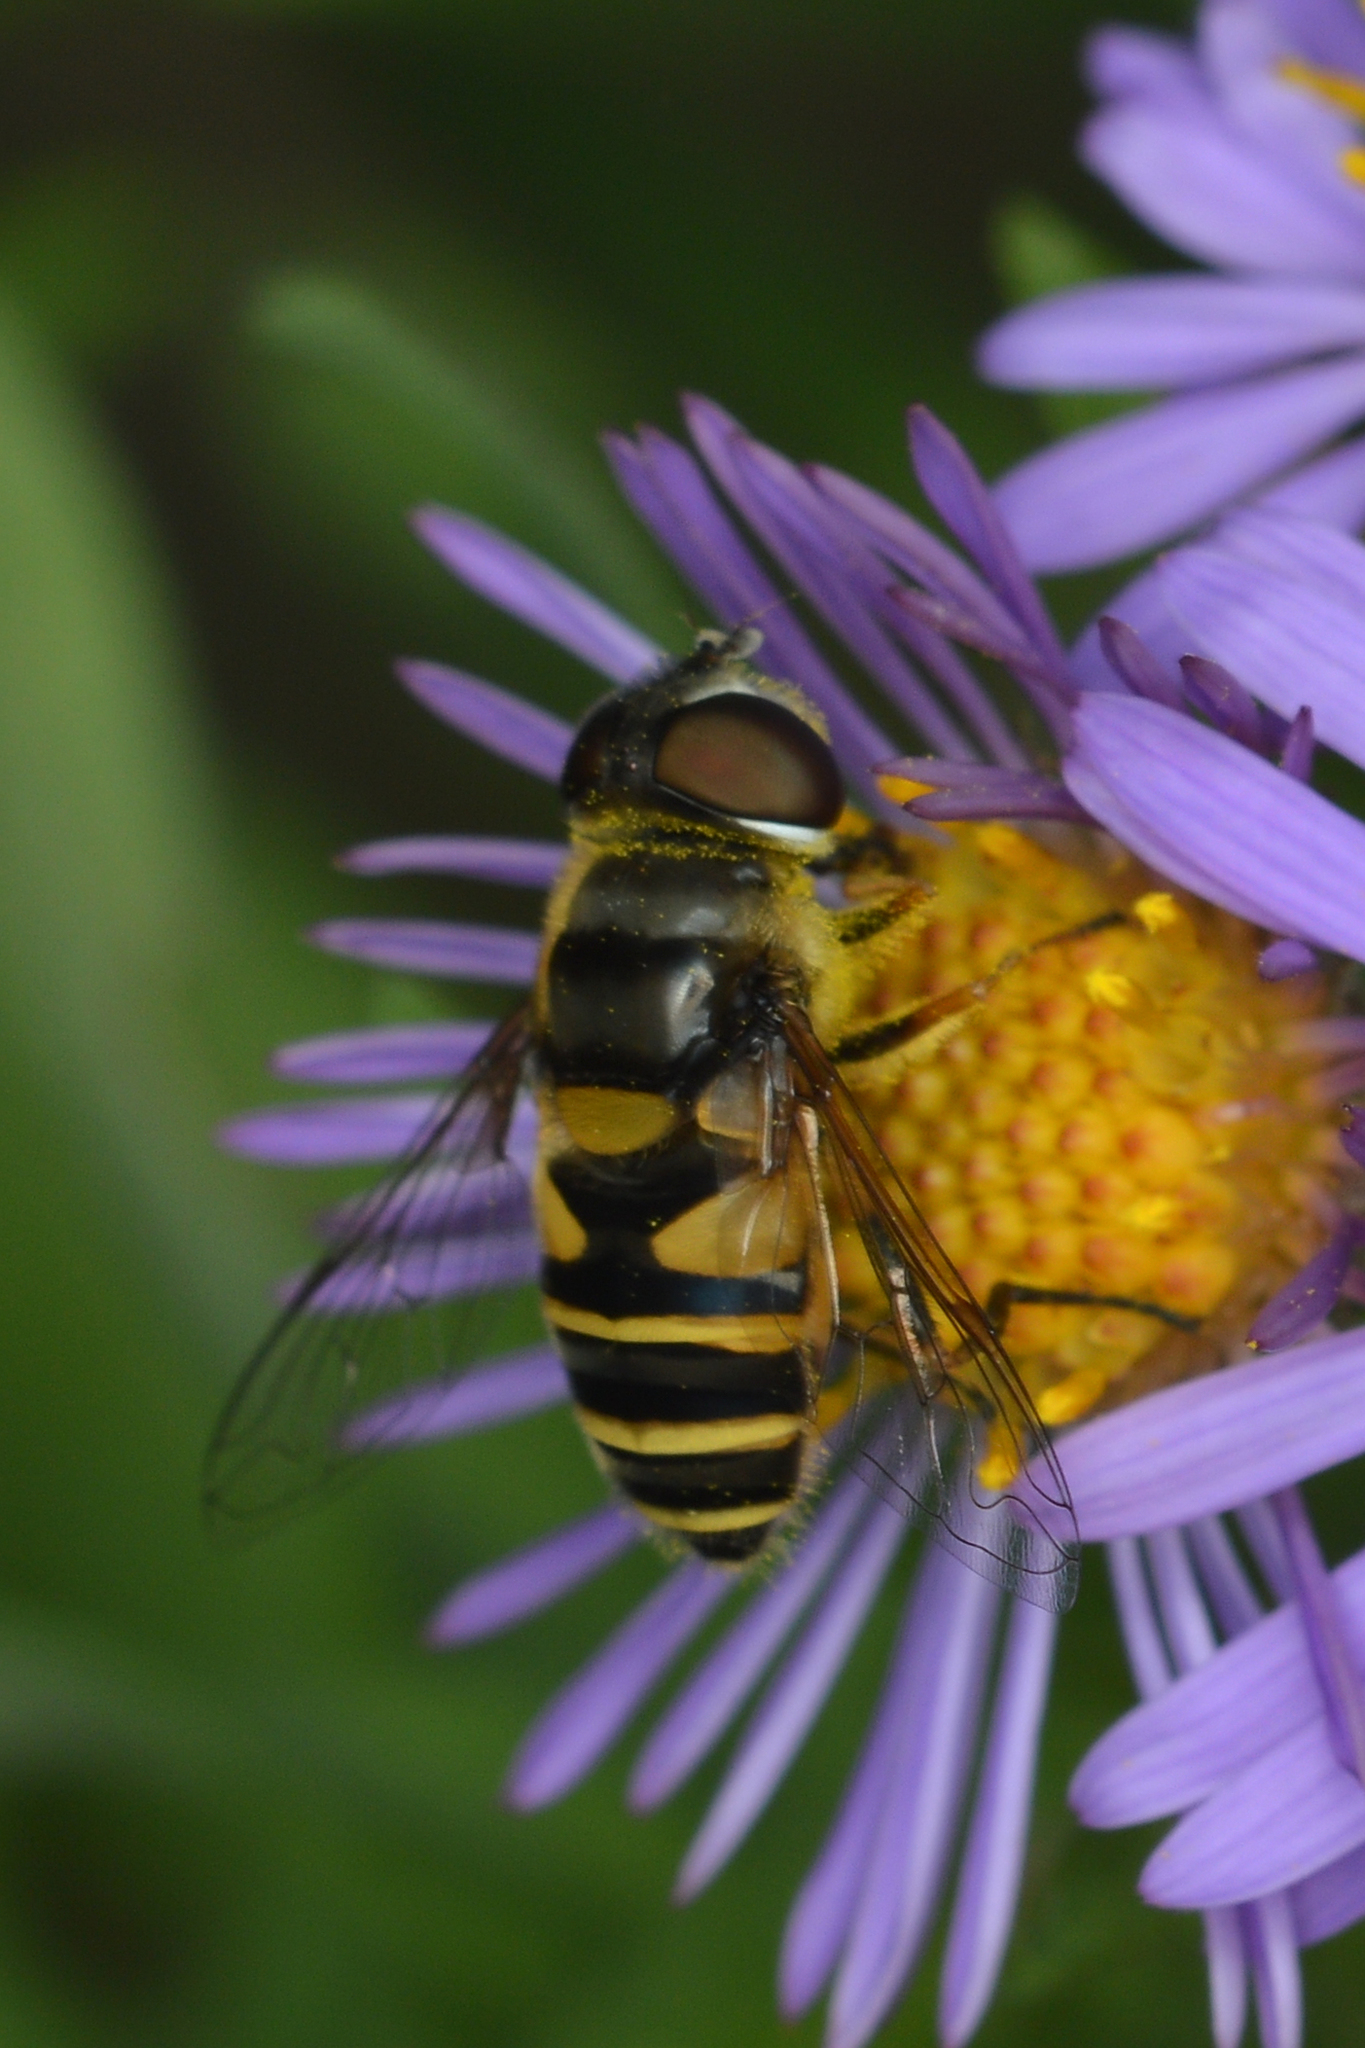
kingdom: Animalia
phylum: Arthropoda
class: Insecta
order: Diptera
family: Syrphidae
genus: Eristalis
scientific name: Eristalis transversa
